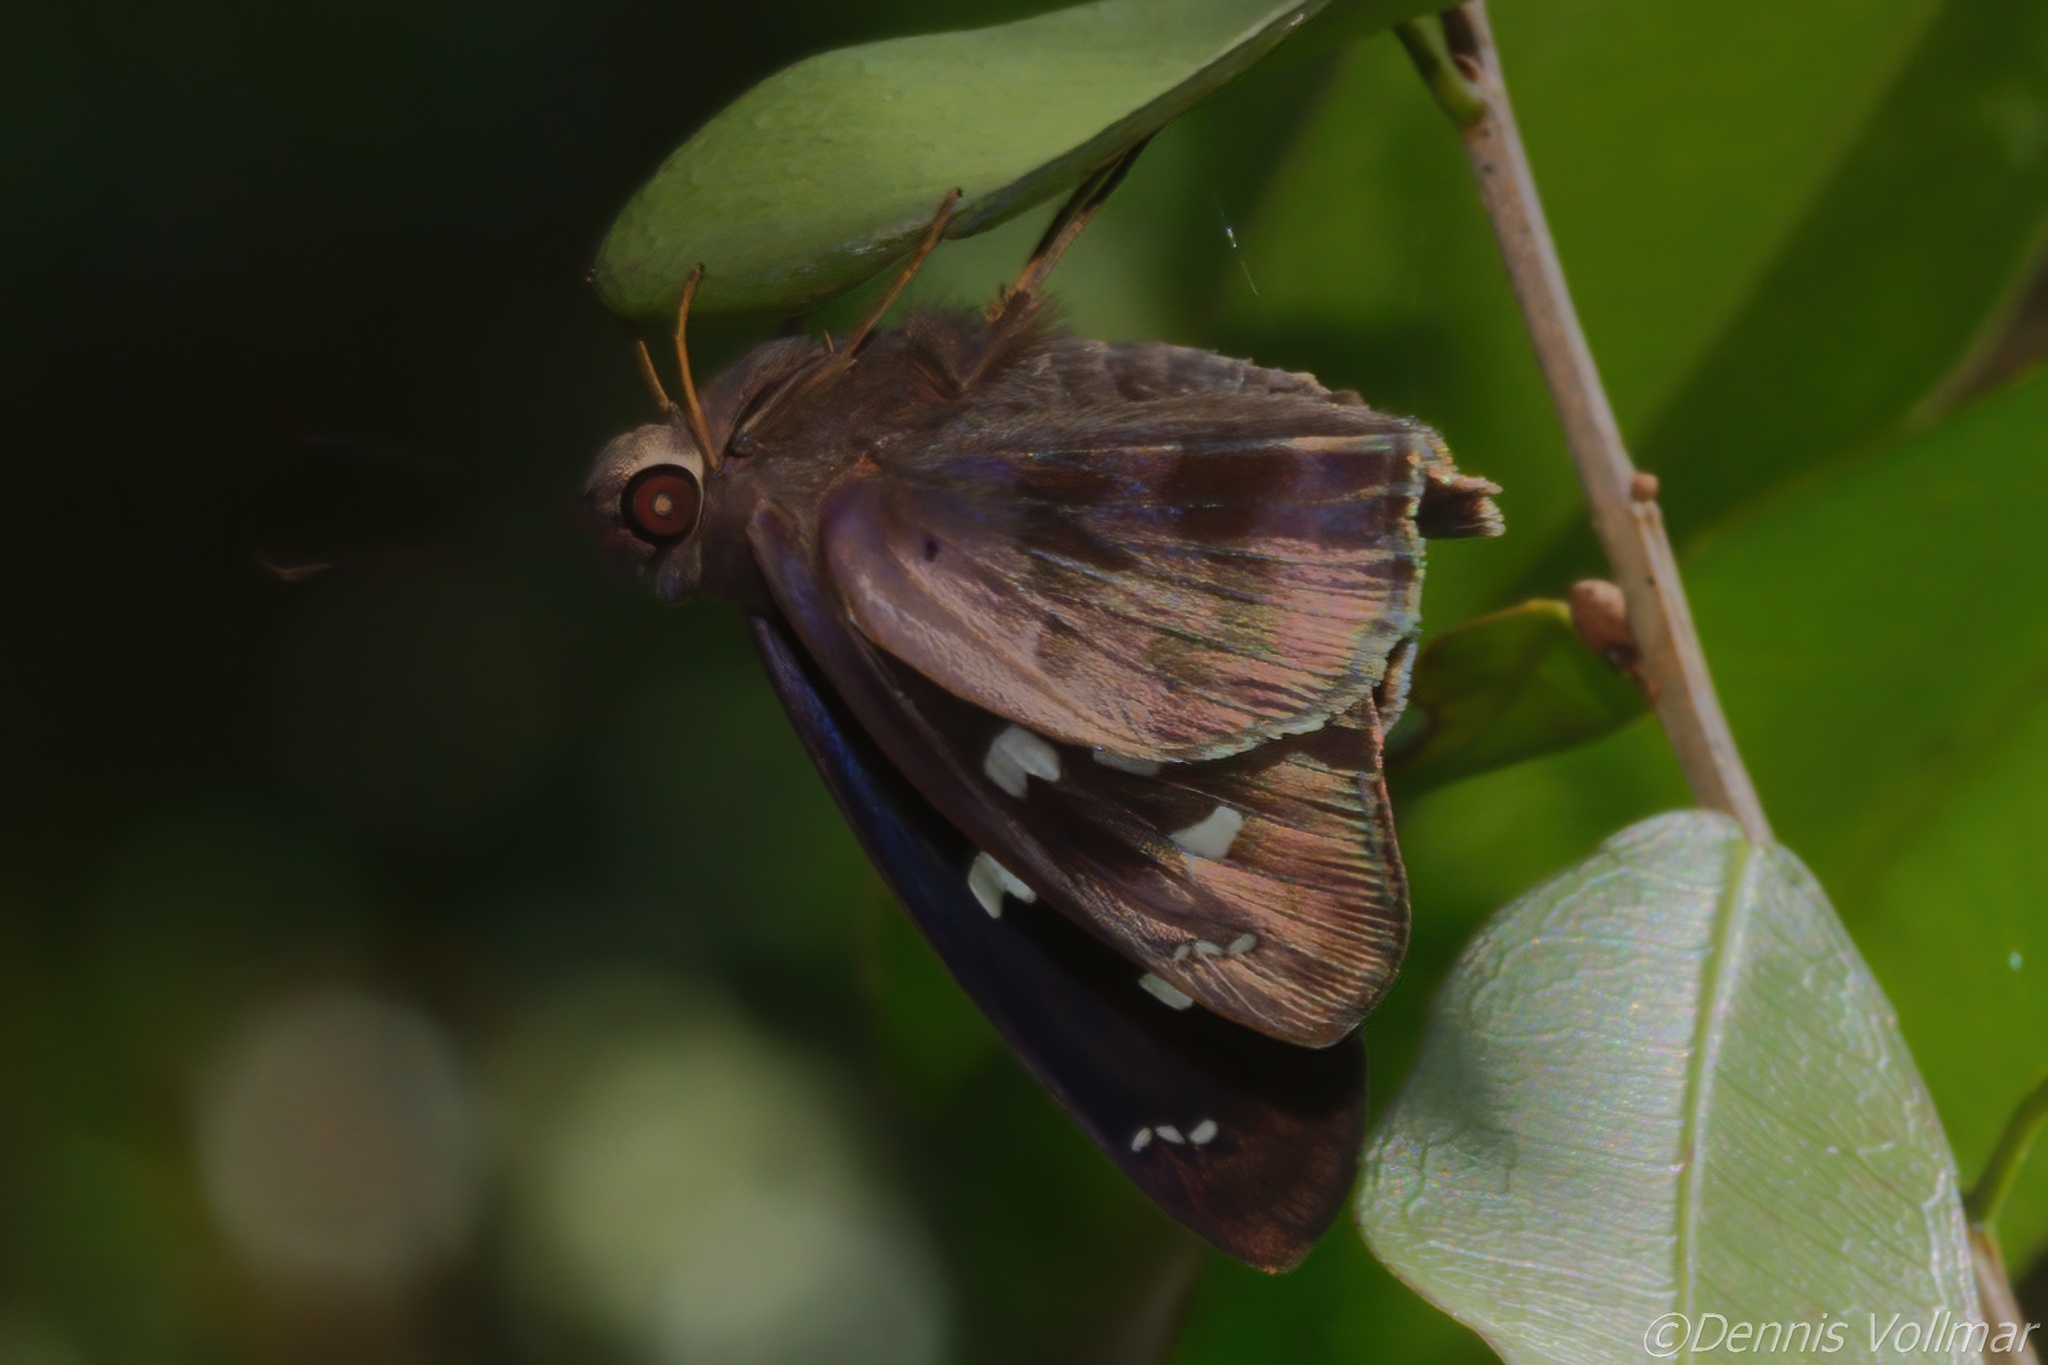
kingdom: Animalia
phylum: Arthropoda
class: Insecta
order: Lepidoptera
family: Hesperiidae
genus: Polygonus
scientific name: Polygonus leo
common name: Hammoch skipper
